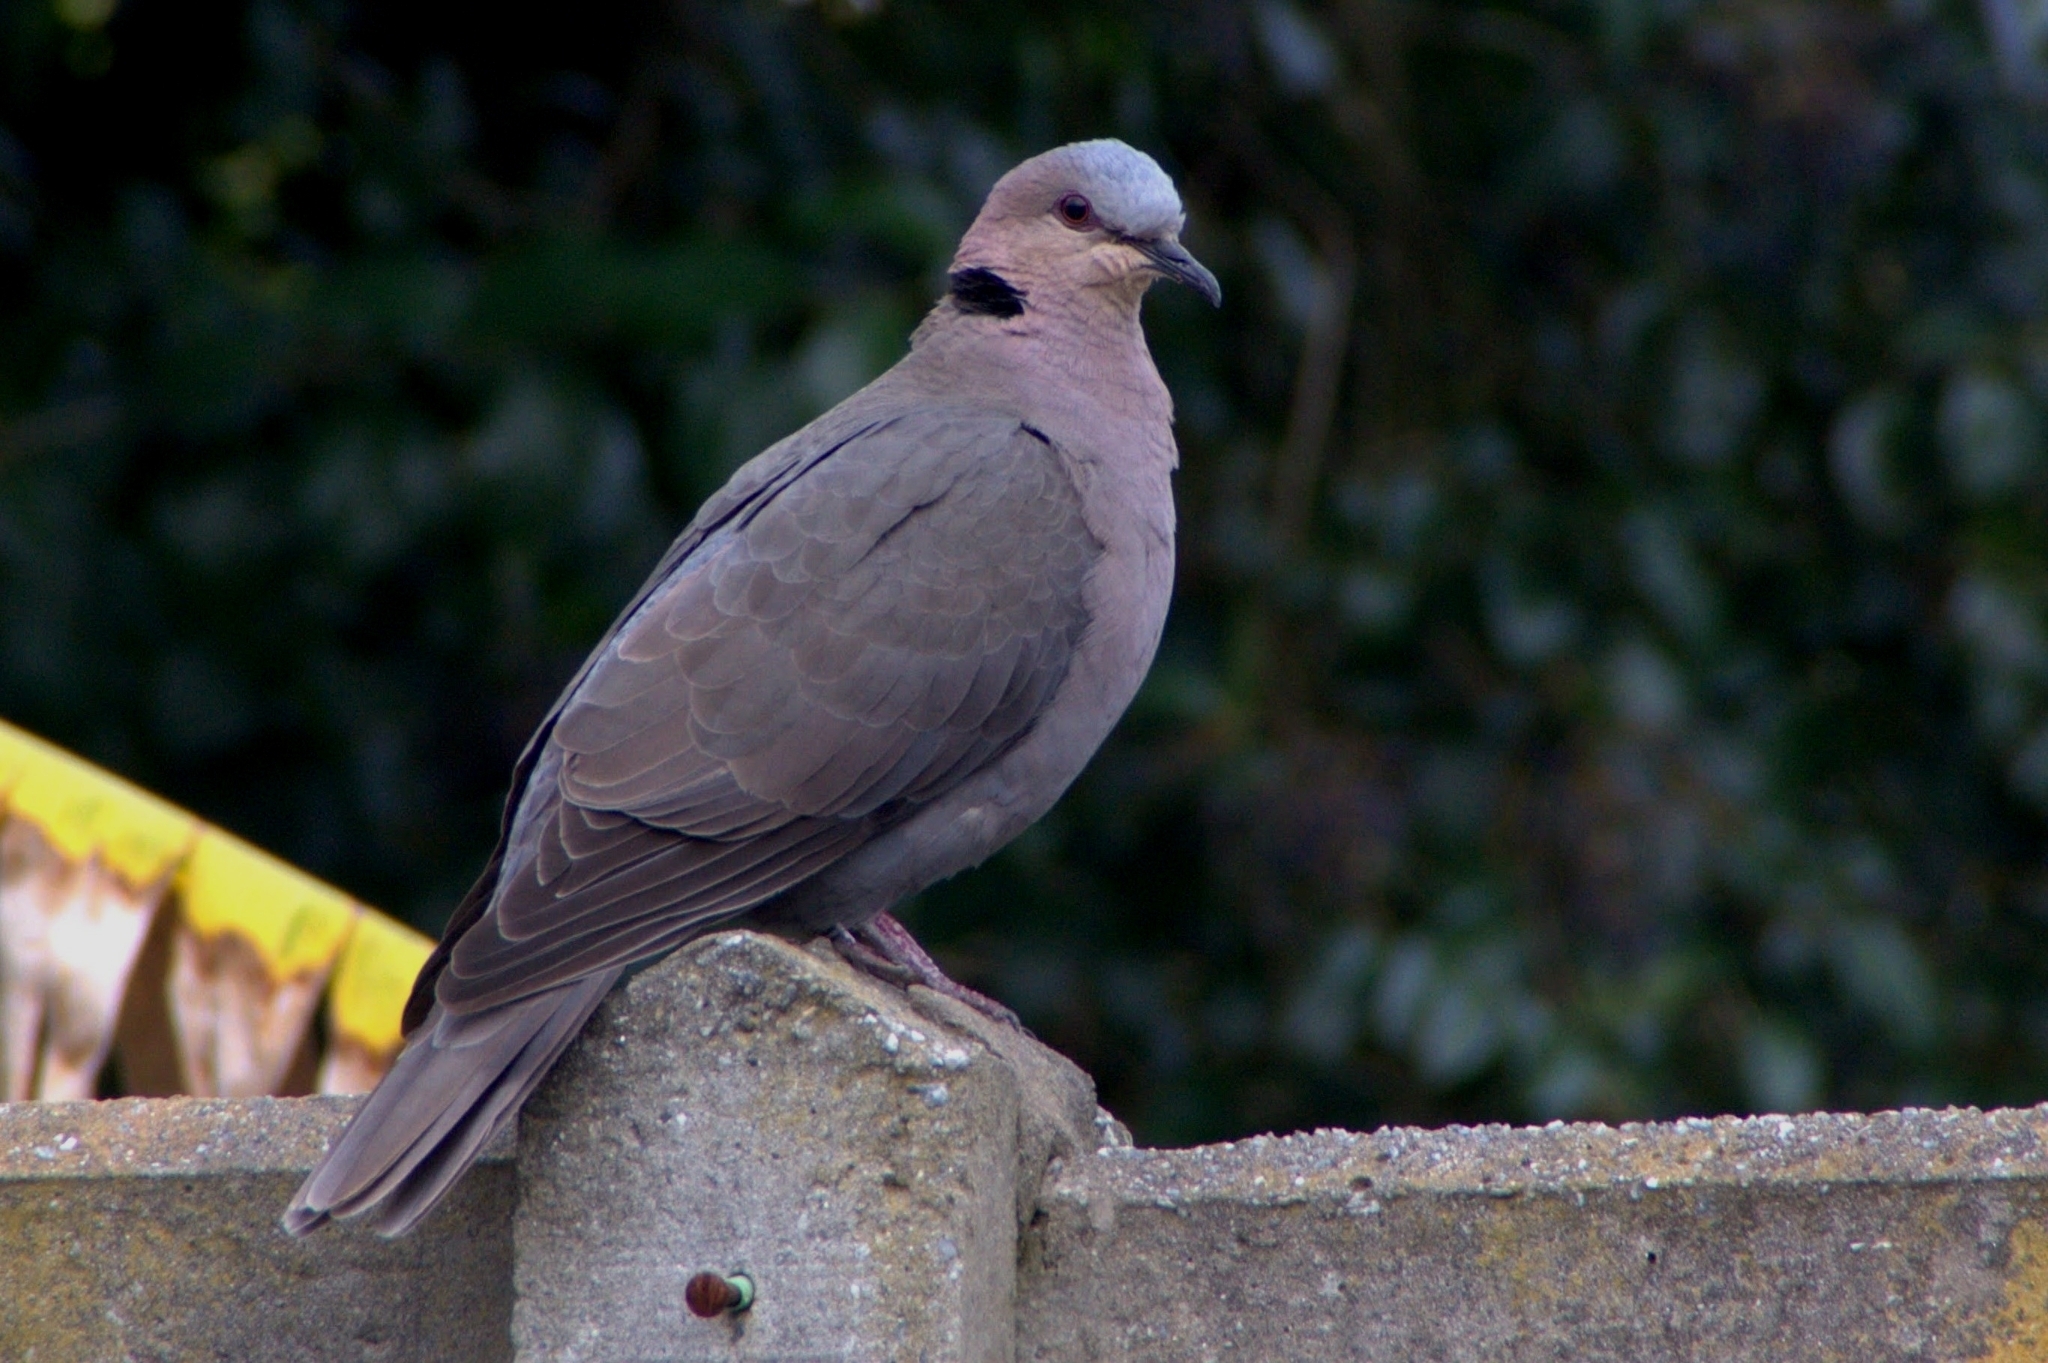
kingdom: Animalia
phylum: Chordata
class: Aves
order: Columbiformes
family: Columbidae
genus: Streptopelia
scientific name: Streptopelia semitorquata
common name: Red-eyed dove
